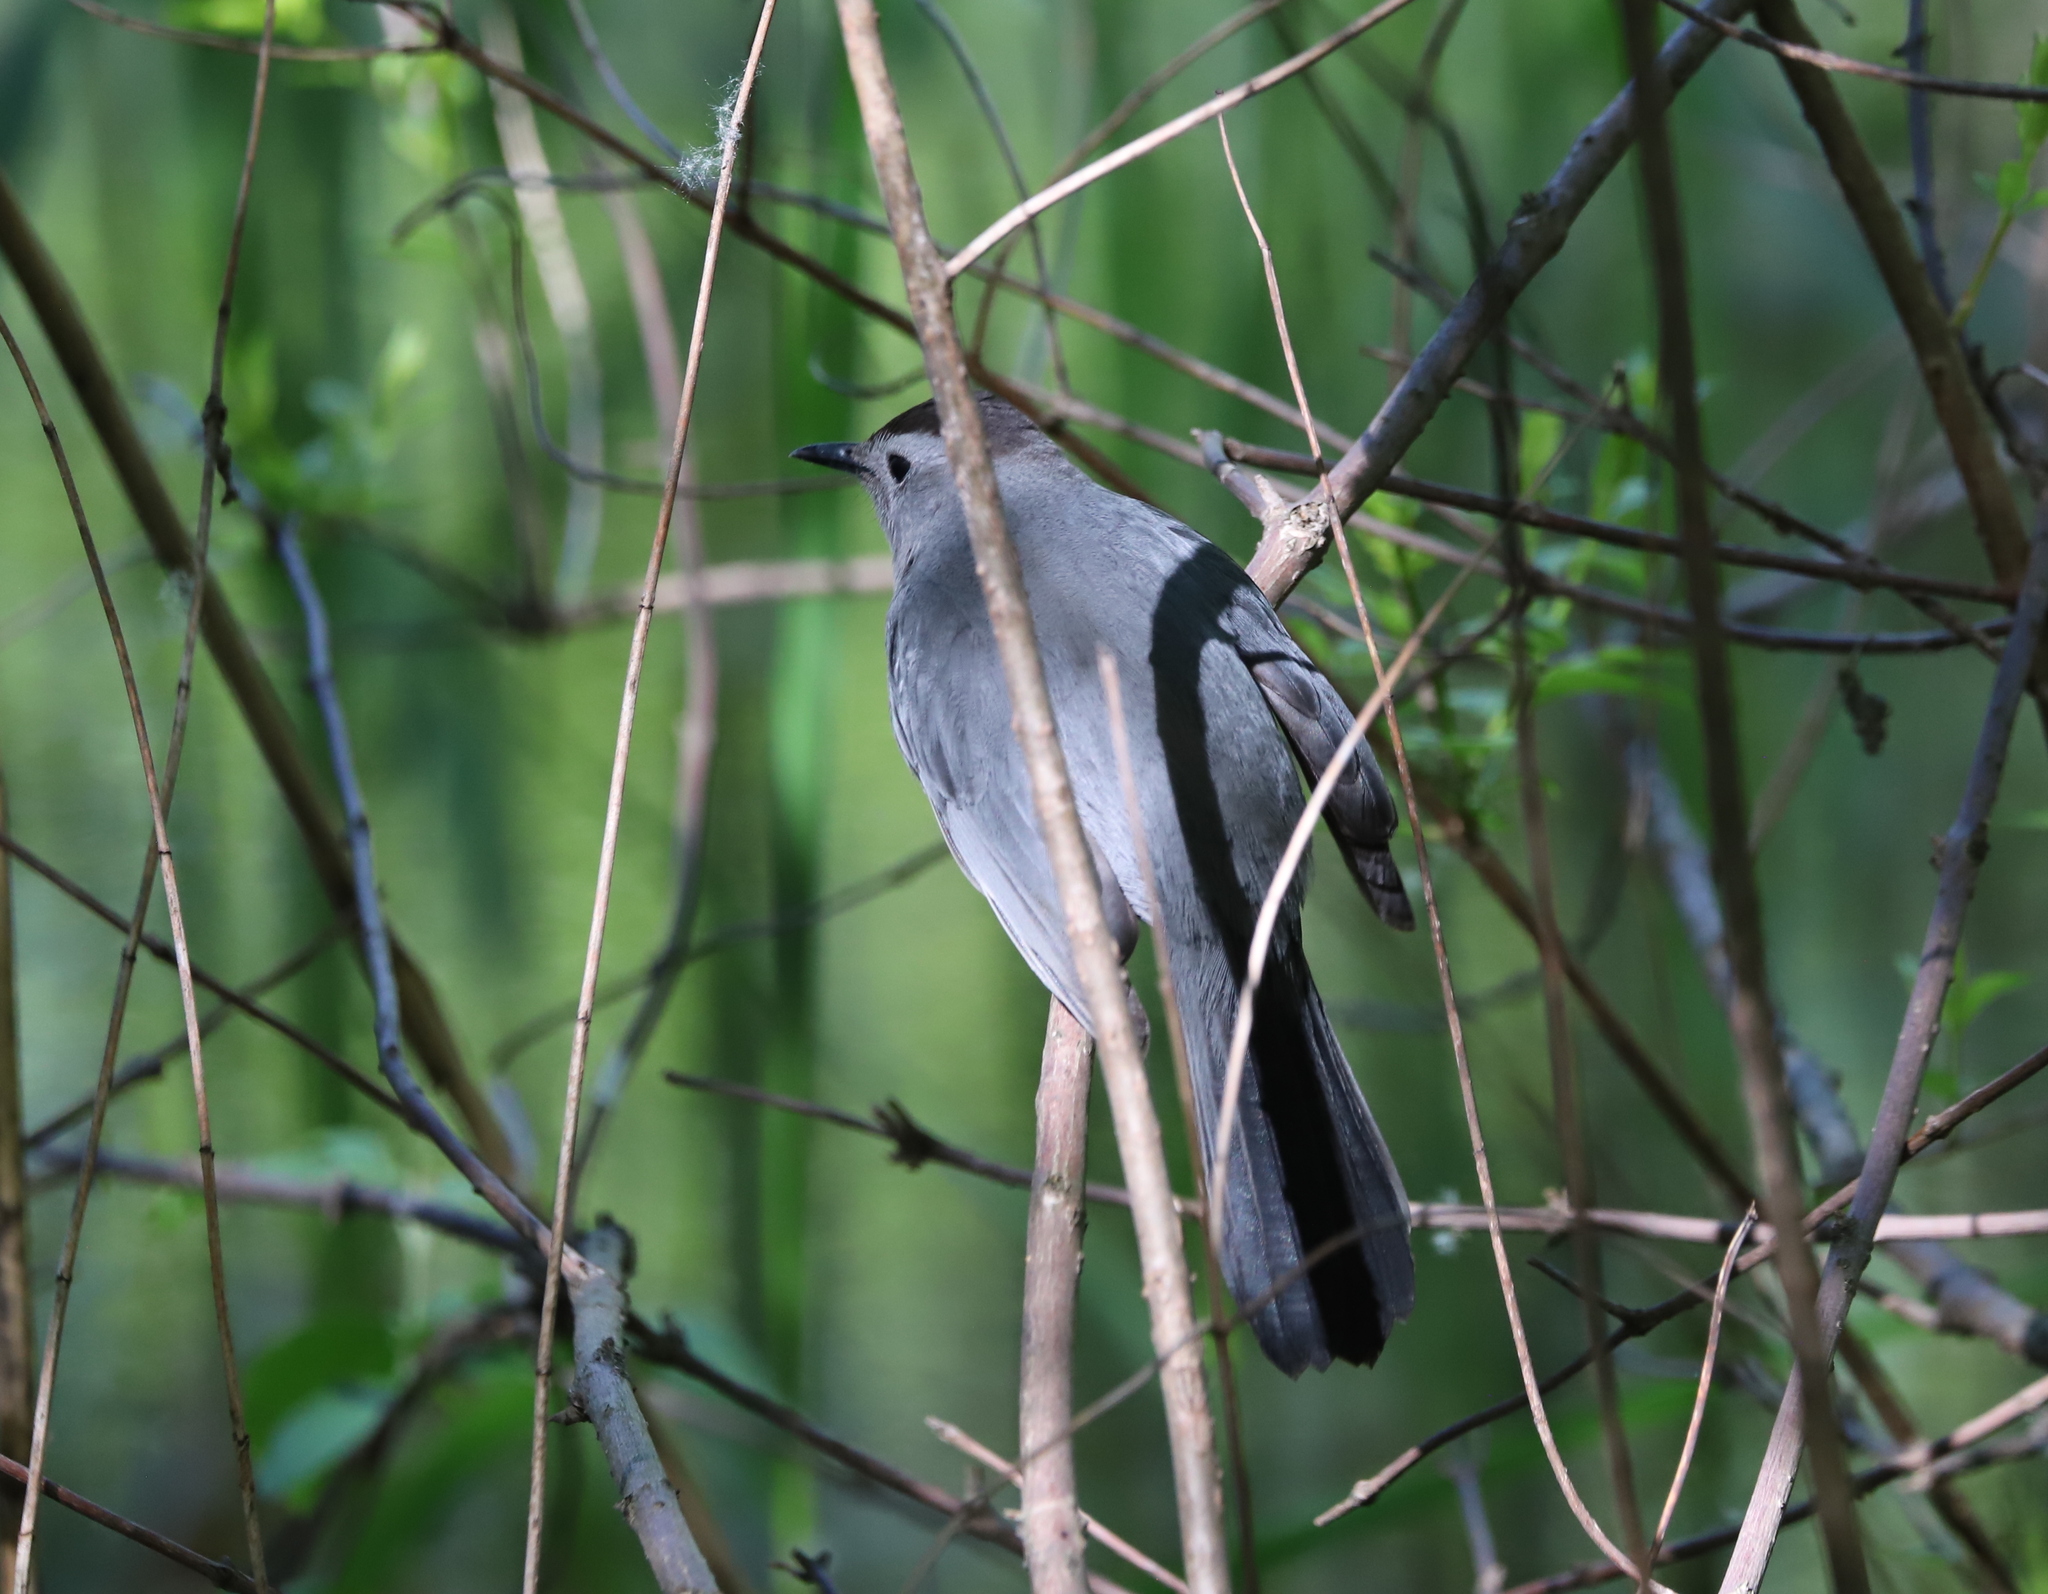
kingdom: Animalia
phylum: Chordata
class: Aves
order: Passeriformes
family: Mimidae
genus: Dumetella
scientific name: Dumetella carolinensis
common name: Gray catbird
